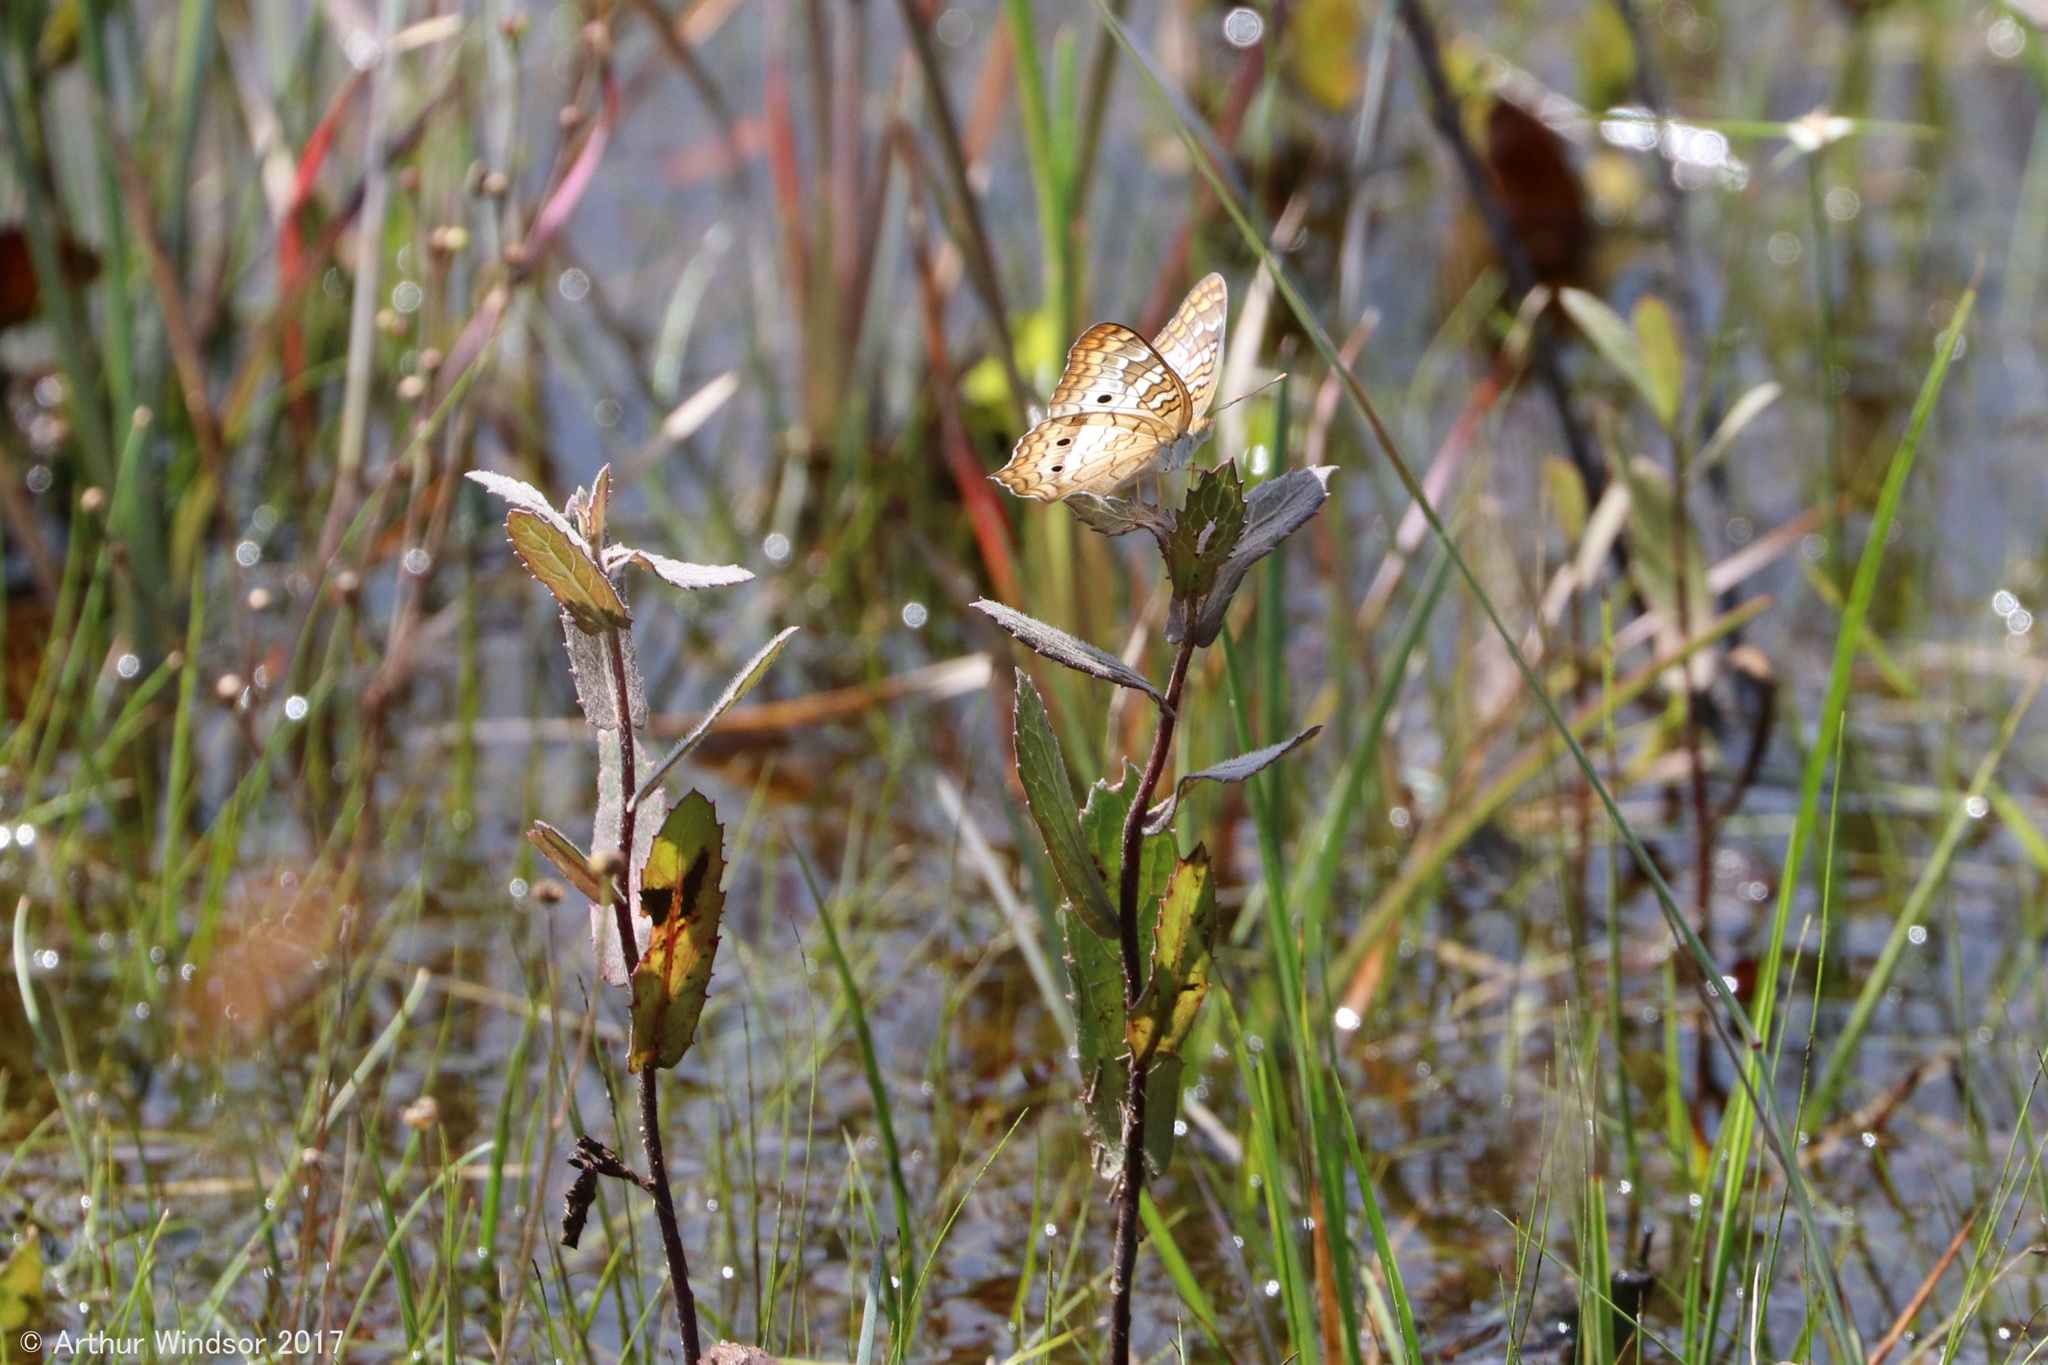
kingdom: Animalia
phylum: Arthropoda
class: Insecta
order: Lepidoptera
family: Nymphalidae
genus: Anartia
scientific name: Anartia jatrophae
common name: White peacock
